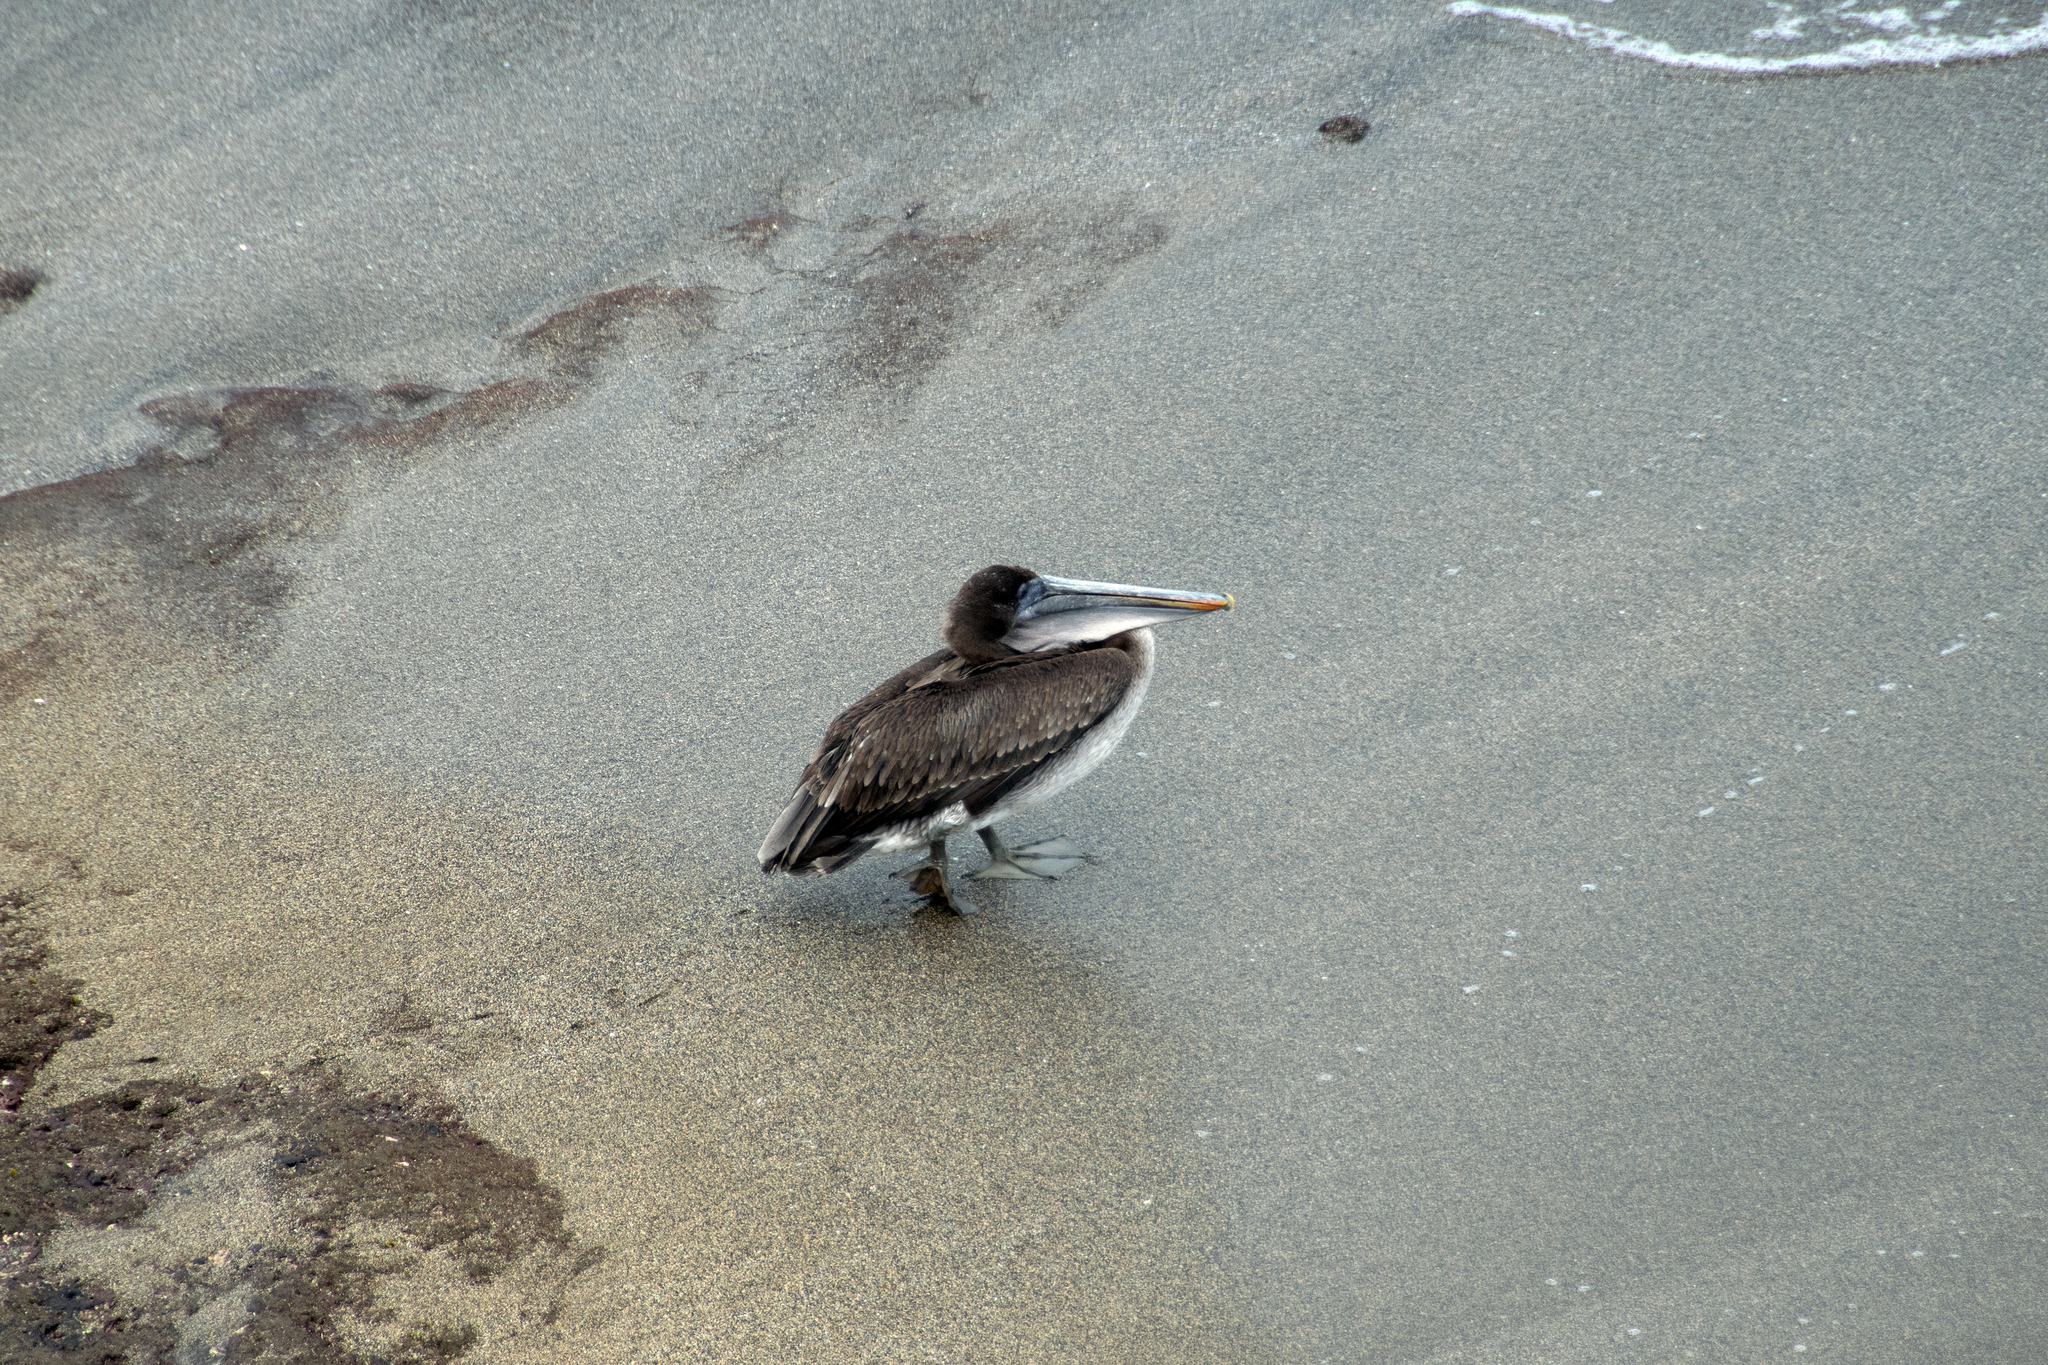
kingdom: Animalia
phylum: Chordata
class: Aves
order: Pelecaniformes
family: Pelecanidae
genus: Pelecanus
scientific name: Pelecanus occidentalis
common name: Brown pelican
